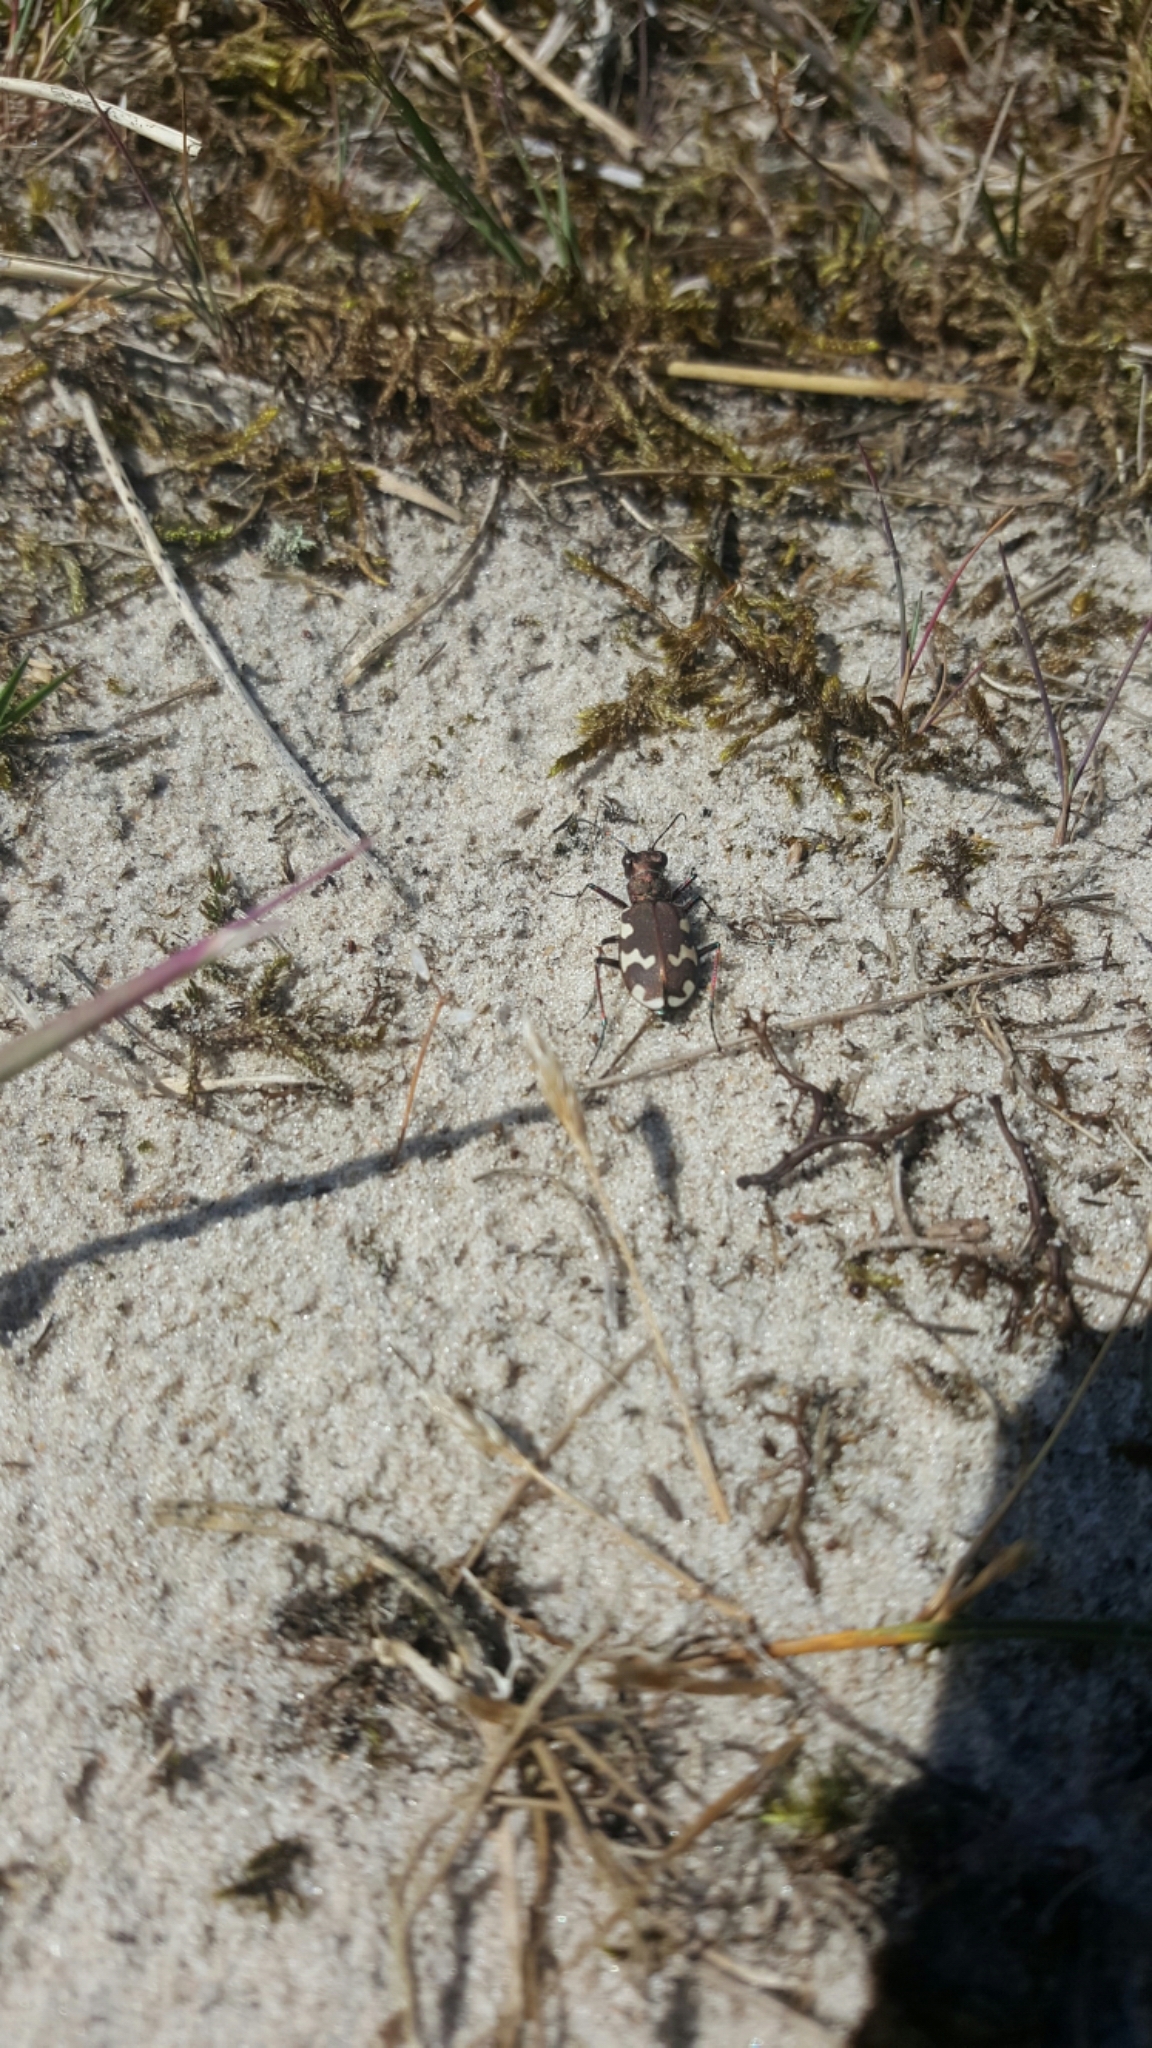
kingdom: Animalia
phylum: Arthropoda
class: Insecta
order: Coleoptera
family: Carabidae
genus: Cicindela
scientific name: Cicindela hybrida
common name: Northern dune tiger beetle
